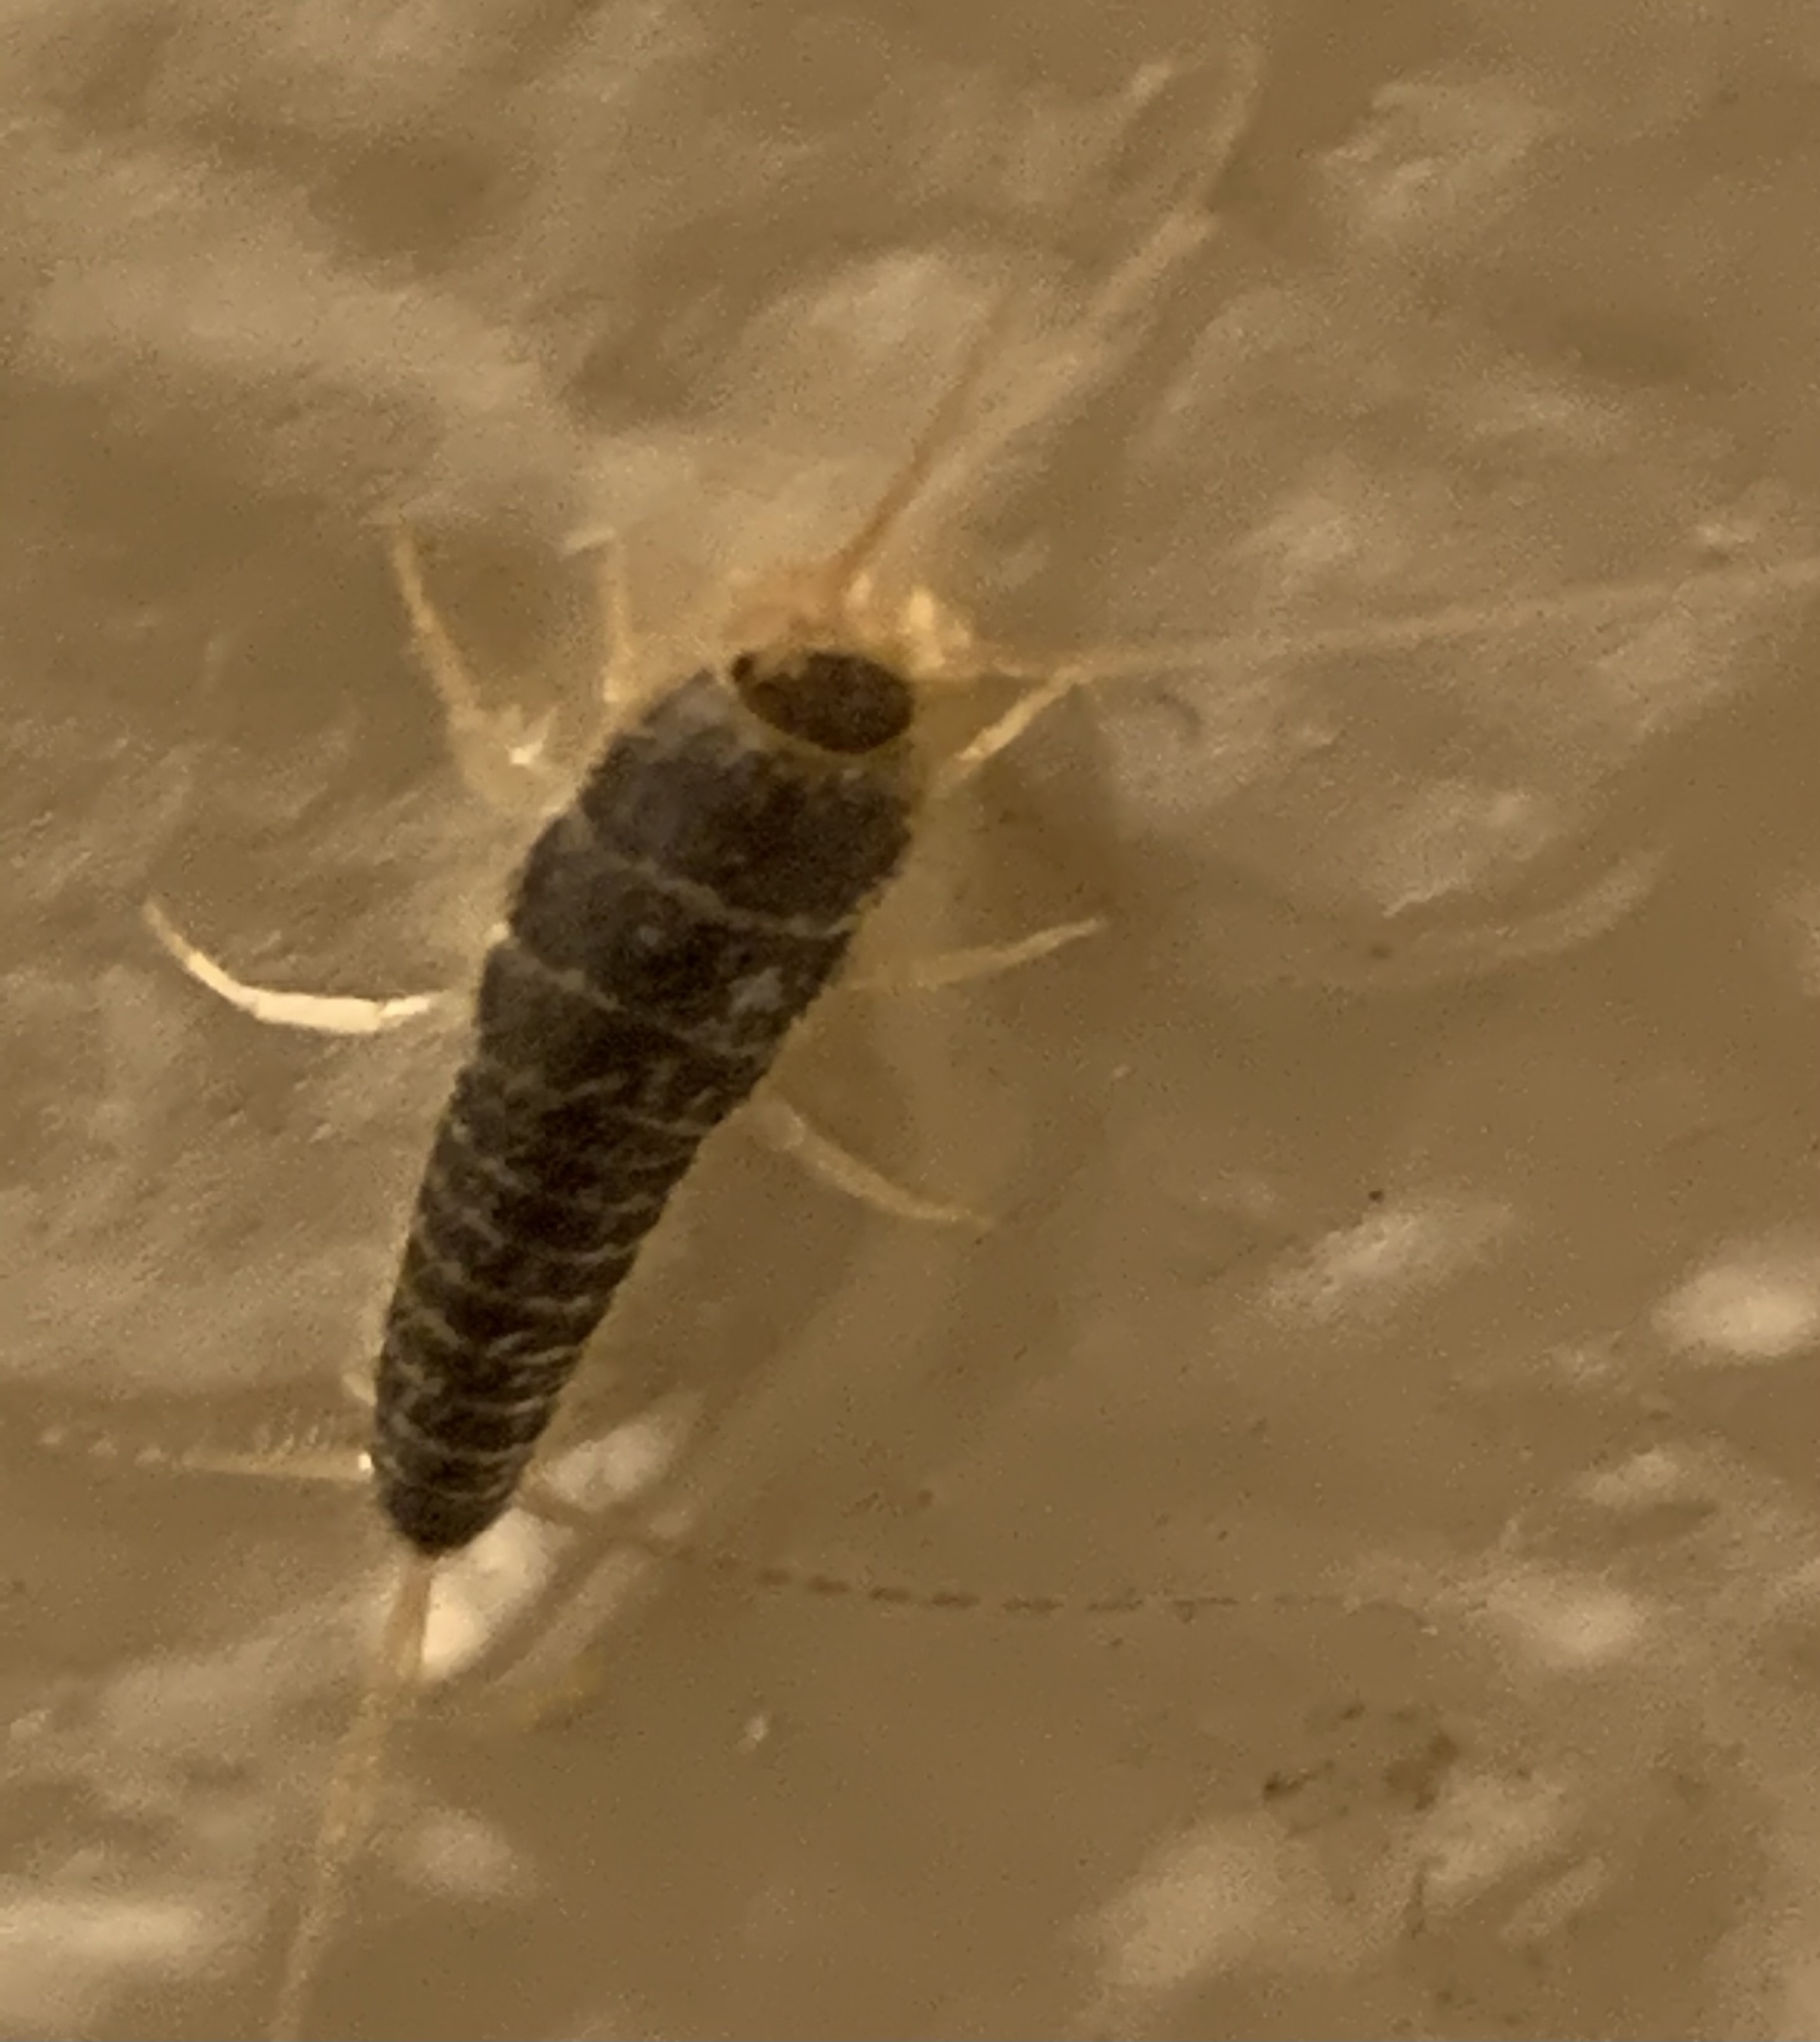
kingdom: Animalia
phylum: Arthropoda
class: Insecta
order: Zygentoma
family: Lepismatidae
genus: Ctenolepisma
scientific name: Ctenolepisma longicaudatum
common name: Silverfish
